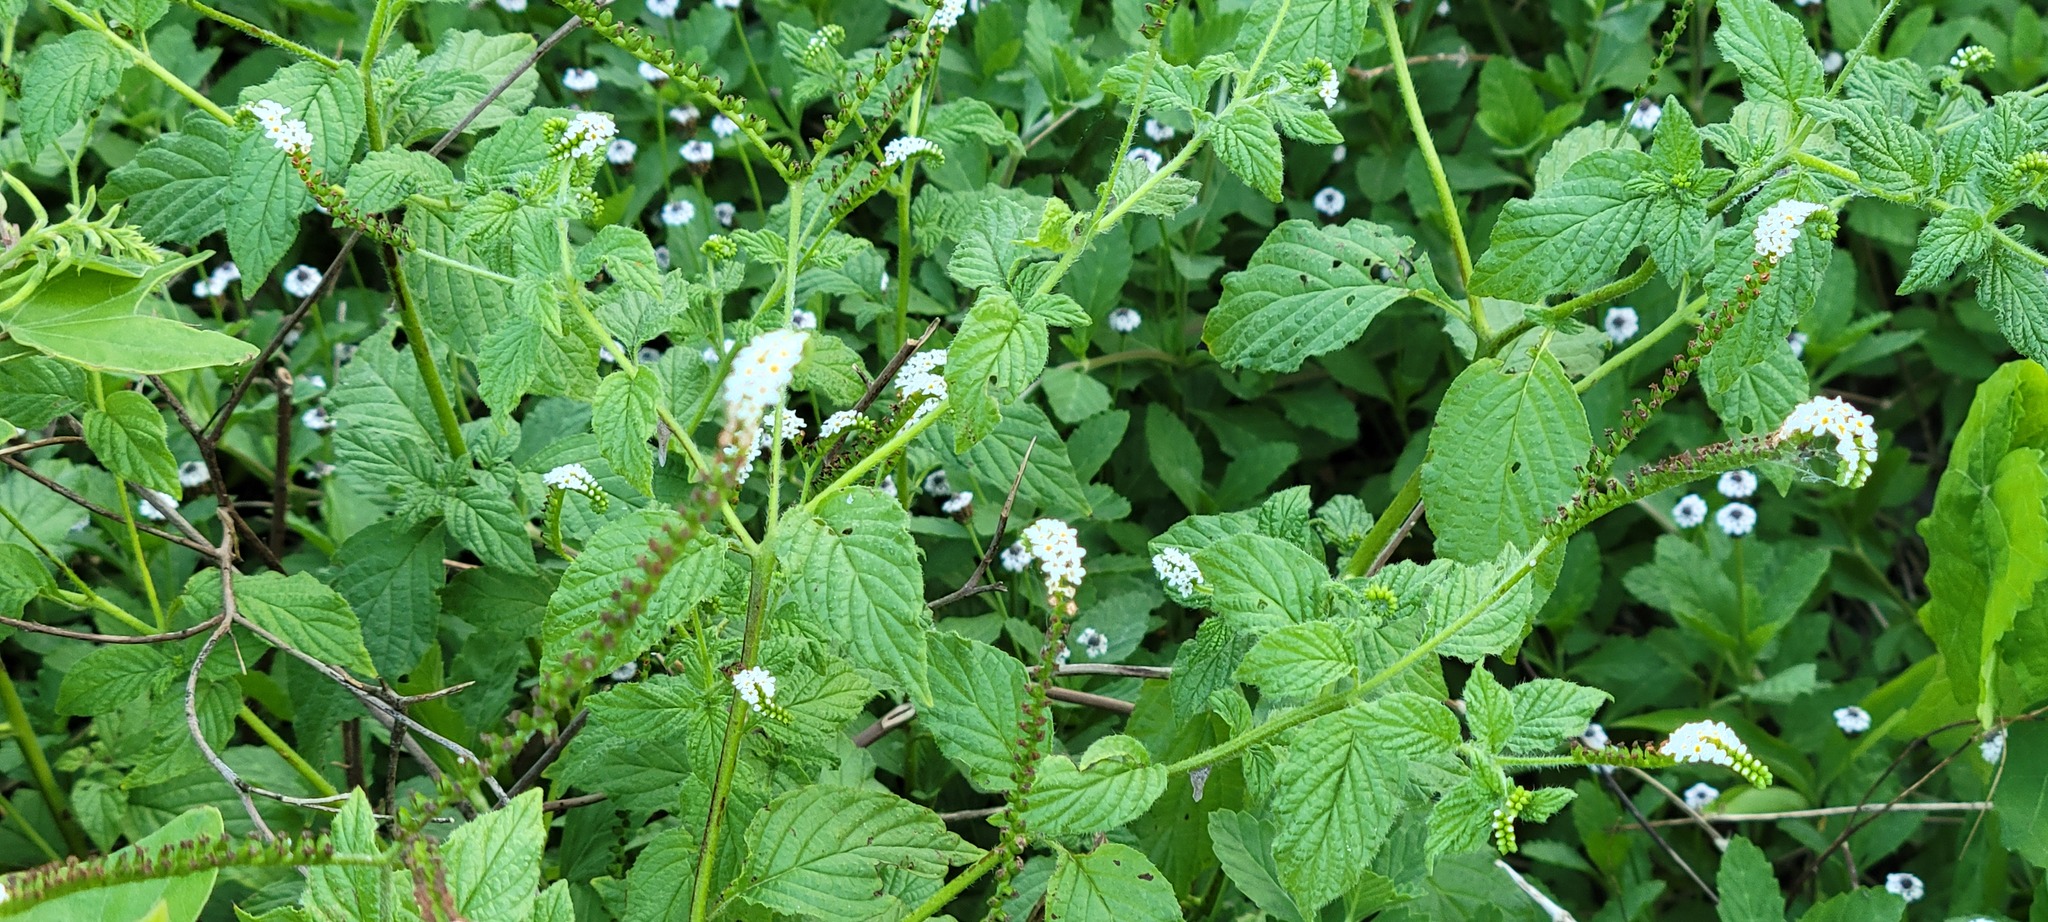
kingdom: Plantae
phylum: Tracheophyta
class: Magnoliopsida
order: Boraginales
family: Heliotropiaceae
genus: Heliotropium
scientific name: Heliotropium angiospermum
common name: Eye bright
